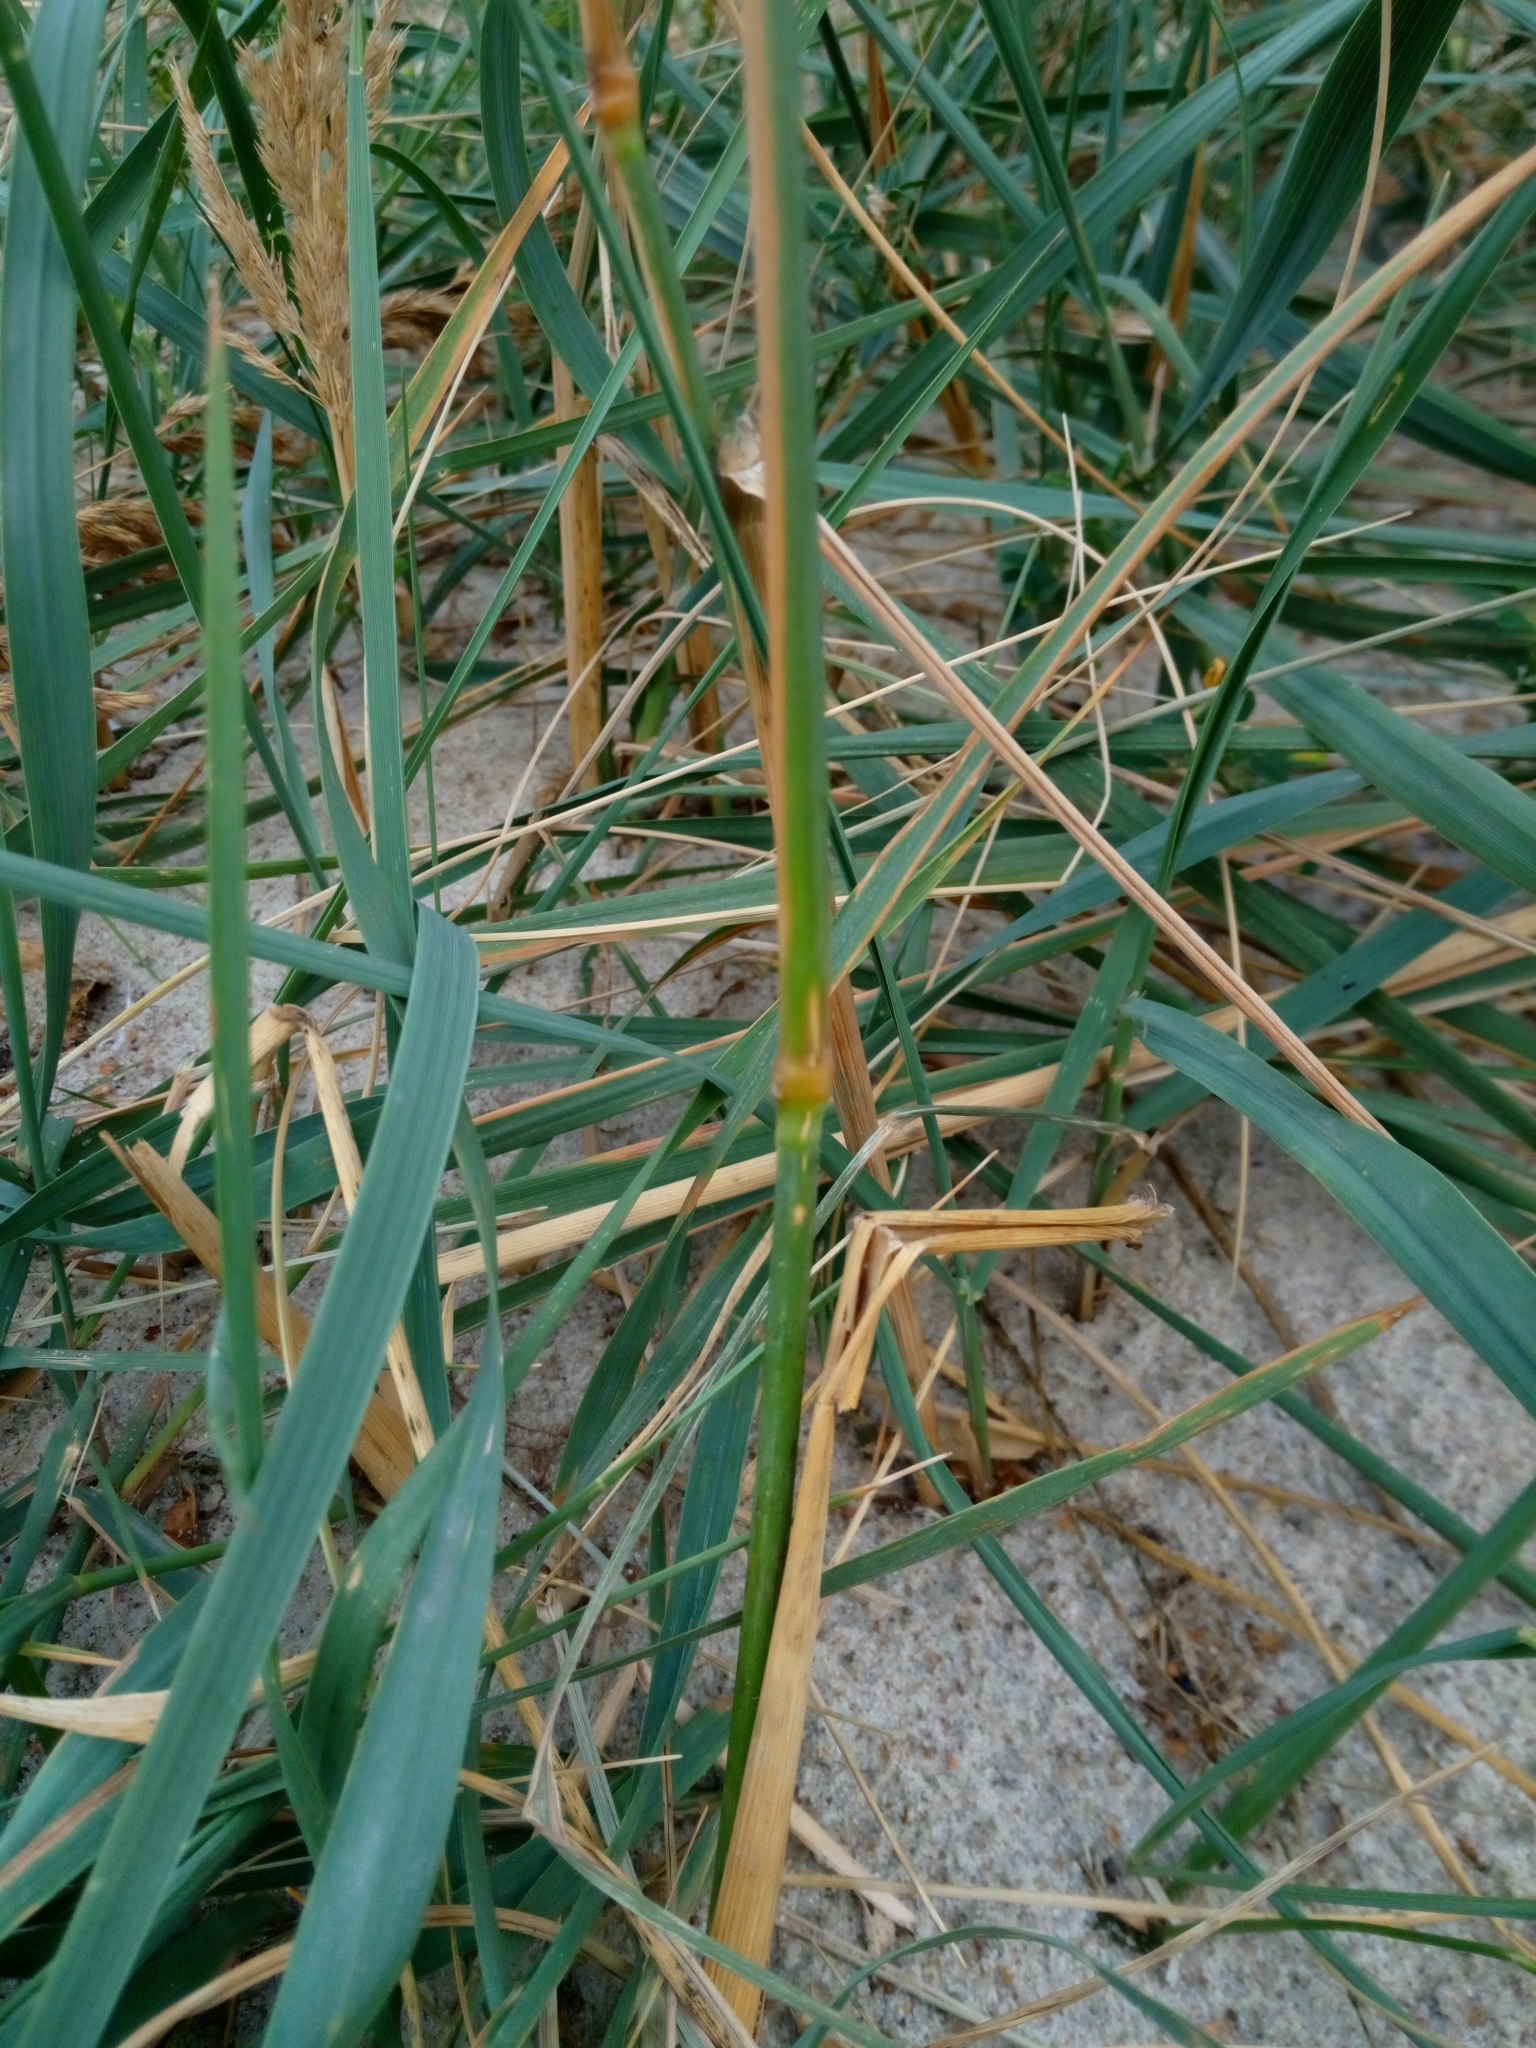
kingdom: Plantae
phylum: Tracheophyta
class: Liliopsida
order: Poales
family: Poaceae
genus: Calamagrostis
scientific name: Calamagrostis epigejos
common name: Wood small-reed
